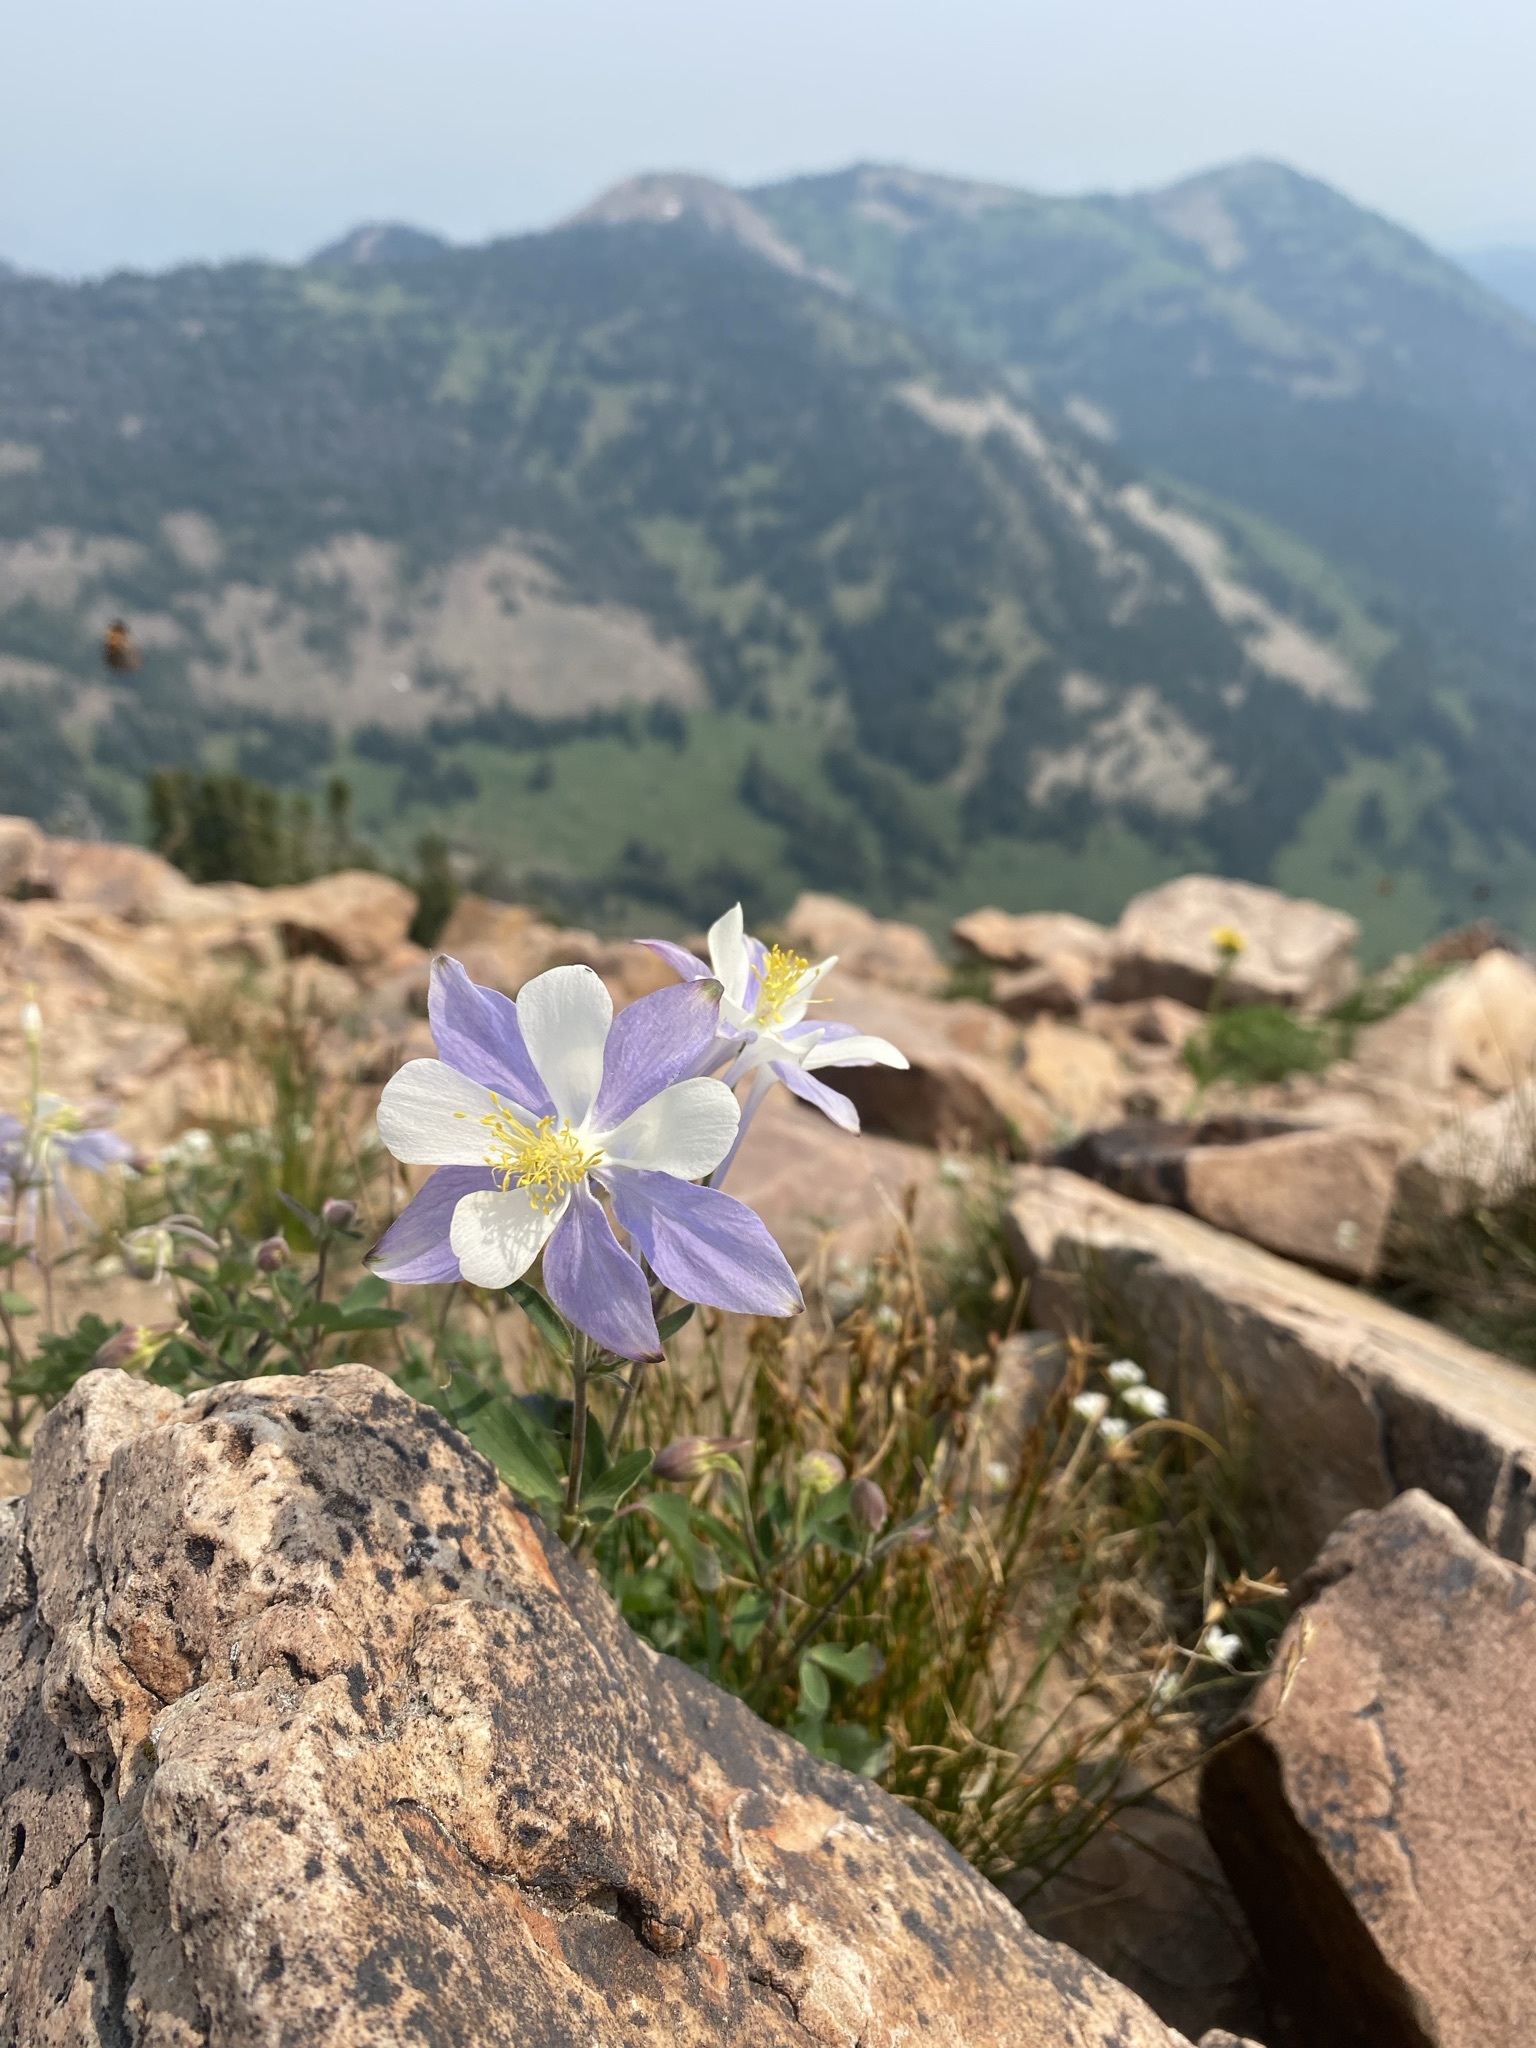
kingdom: Plantae
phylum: Tracheophyta
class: Magnoliopsida
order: Ranunculales
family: Ranunculaceae
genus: Aquilegia
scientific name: Aquilegia coerulea
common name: Rocky mountain columbine
